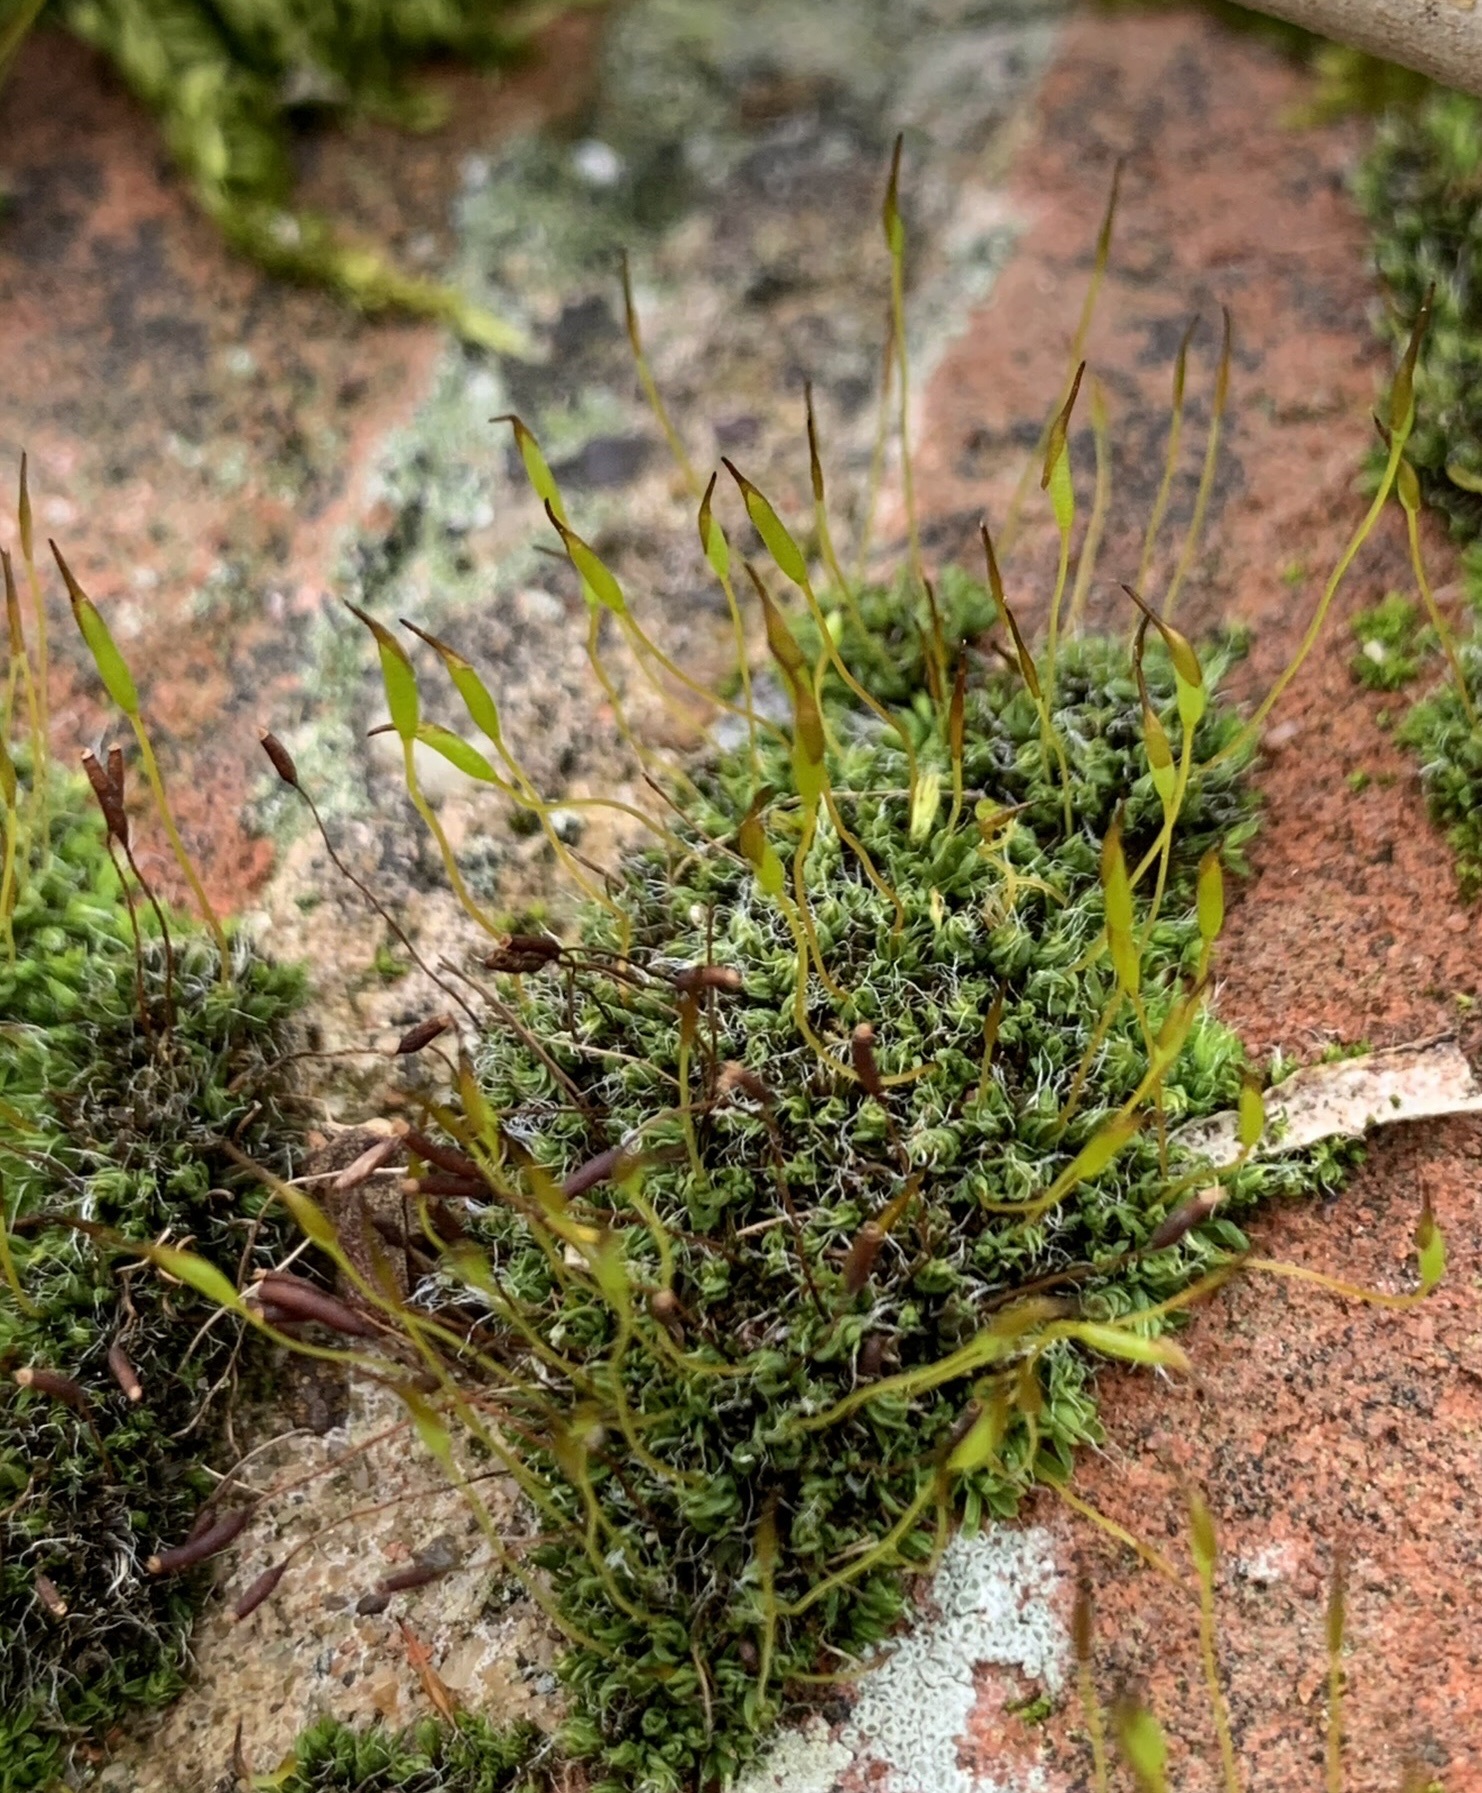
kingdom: Plantae
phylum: Bryophyta
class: Bryopsida
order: Pottiales
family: Pottiaceae
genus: Tortula
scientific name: Tortula muralis
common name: Wall screw-moss
